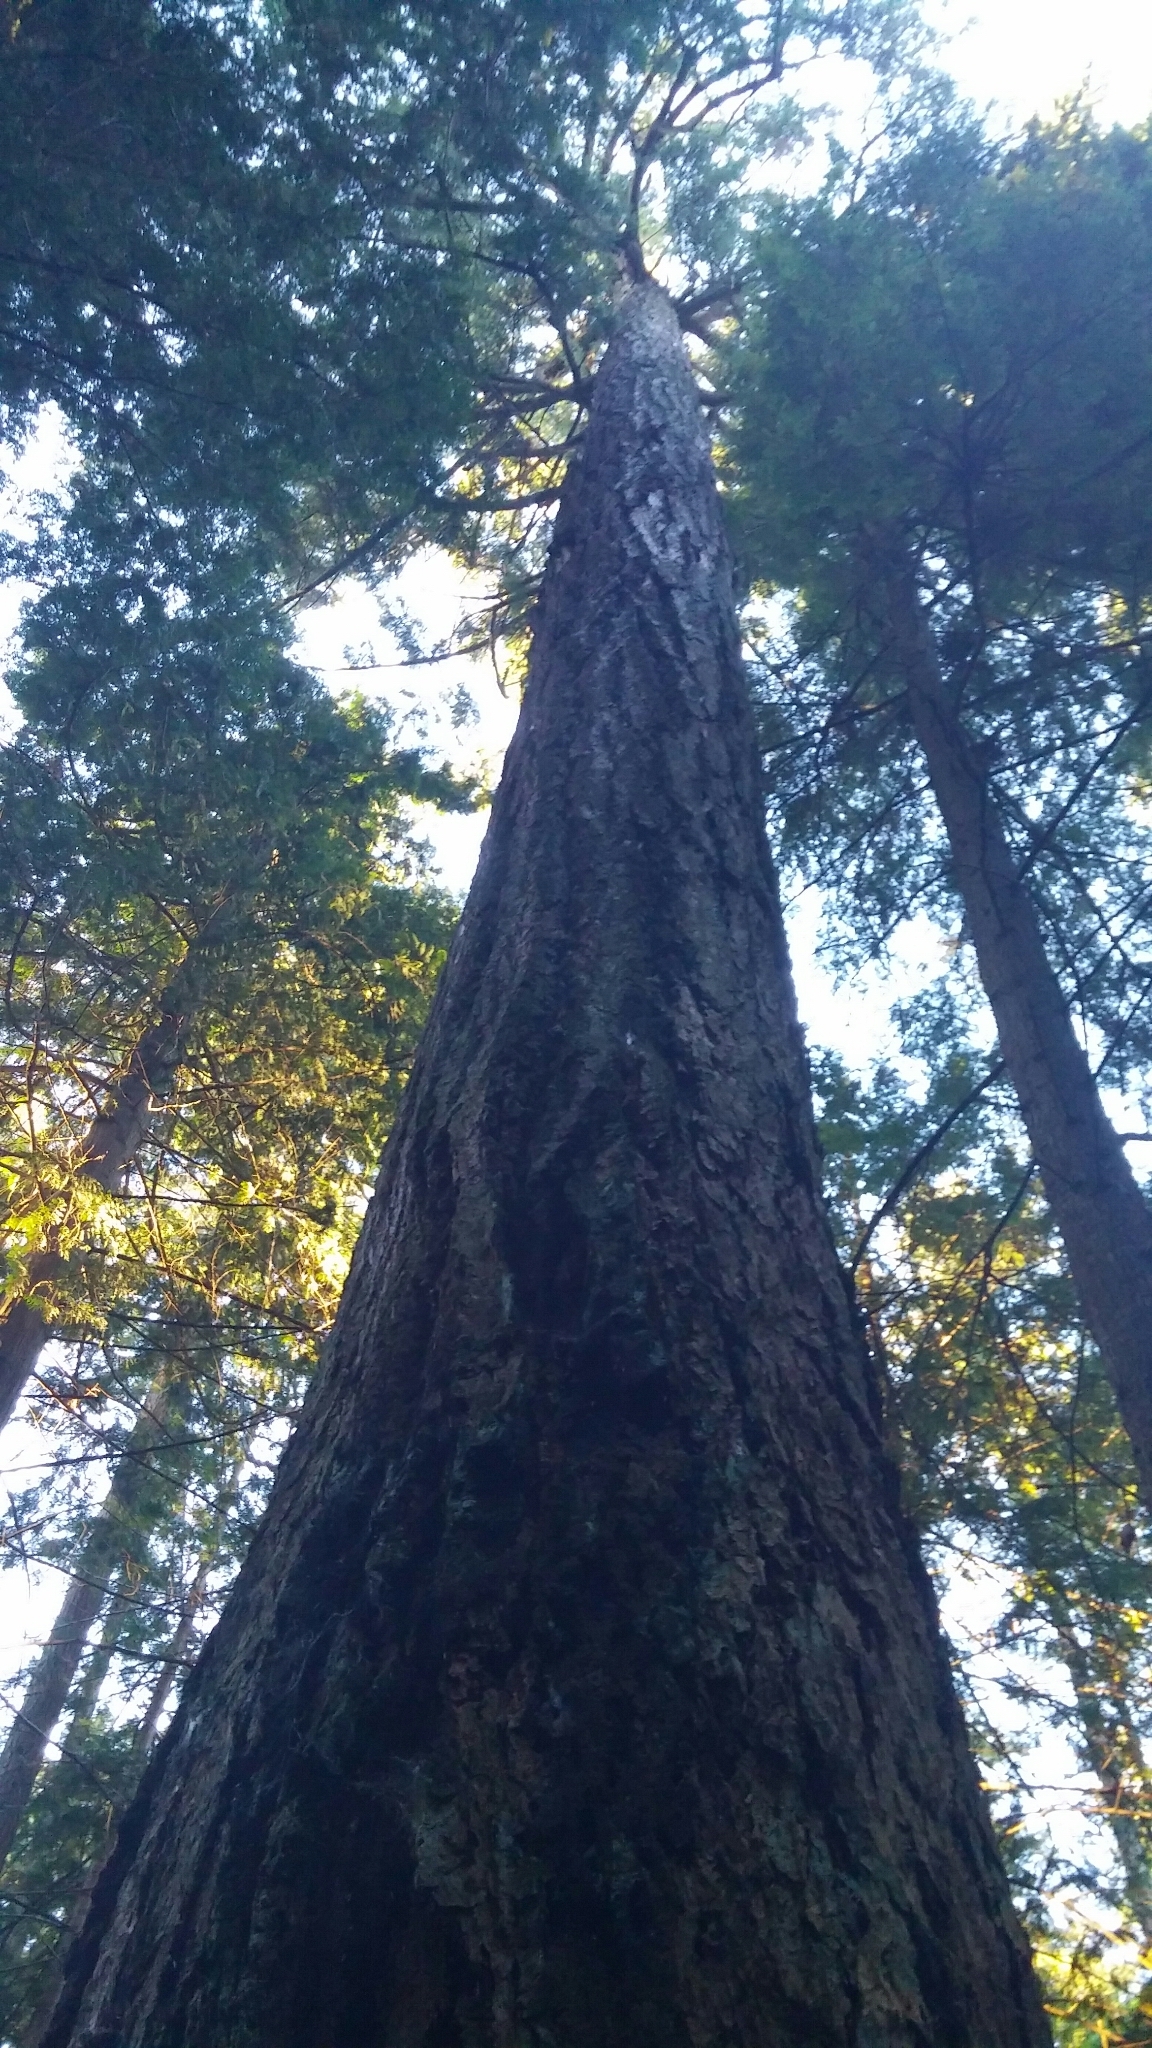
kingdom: Plantae
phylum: Tracheophyta
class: Pinopsida
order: Pinales
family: Pinaceae
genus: Pseudotsuga
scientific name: Pseudotsuga menziesii
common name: Douglas fir
